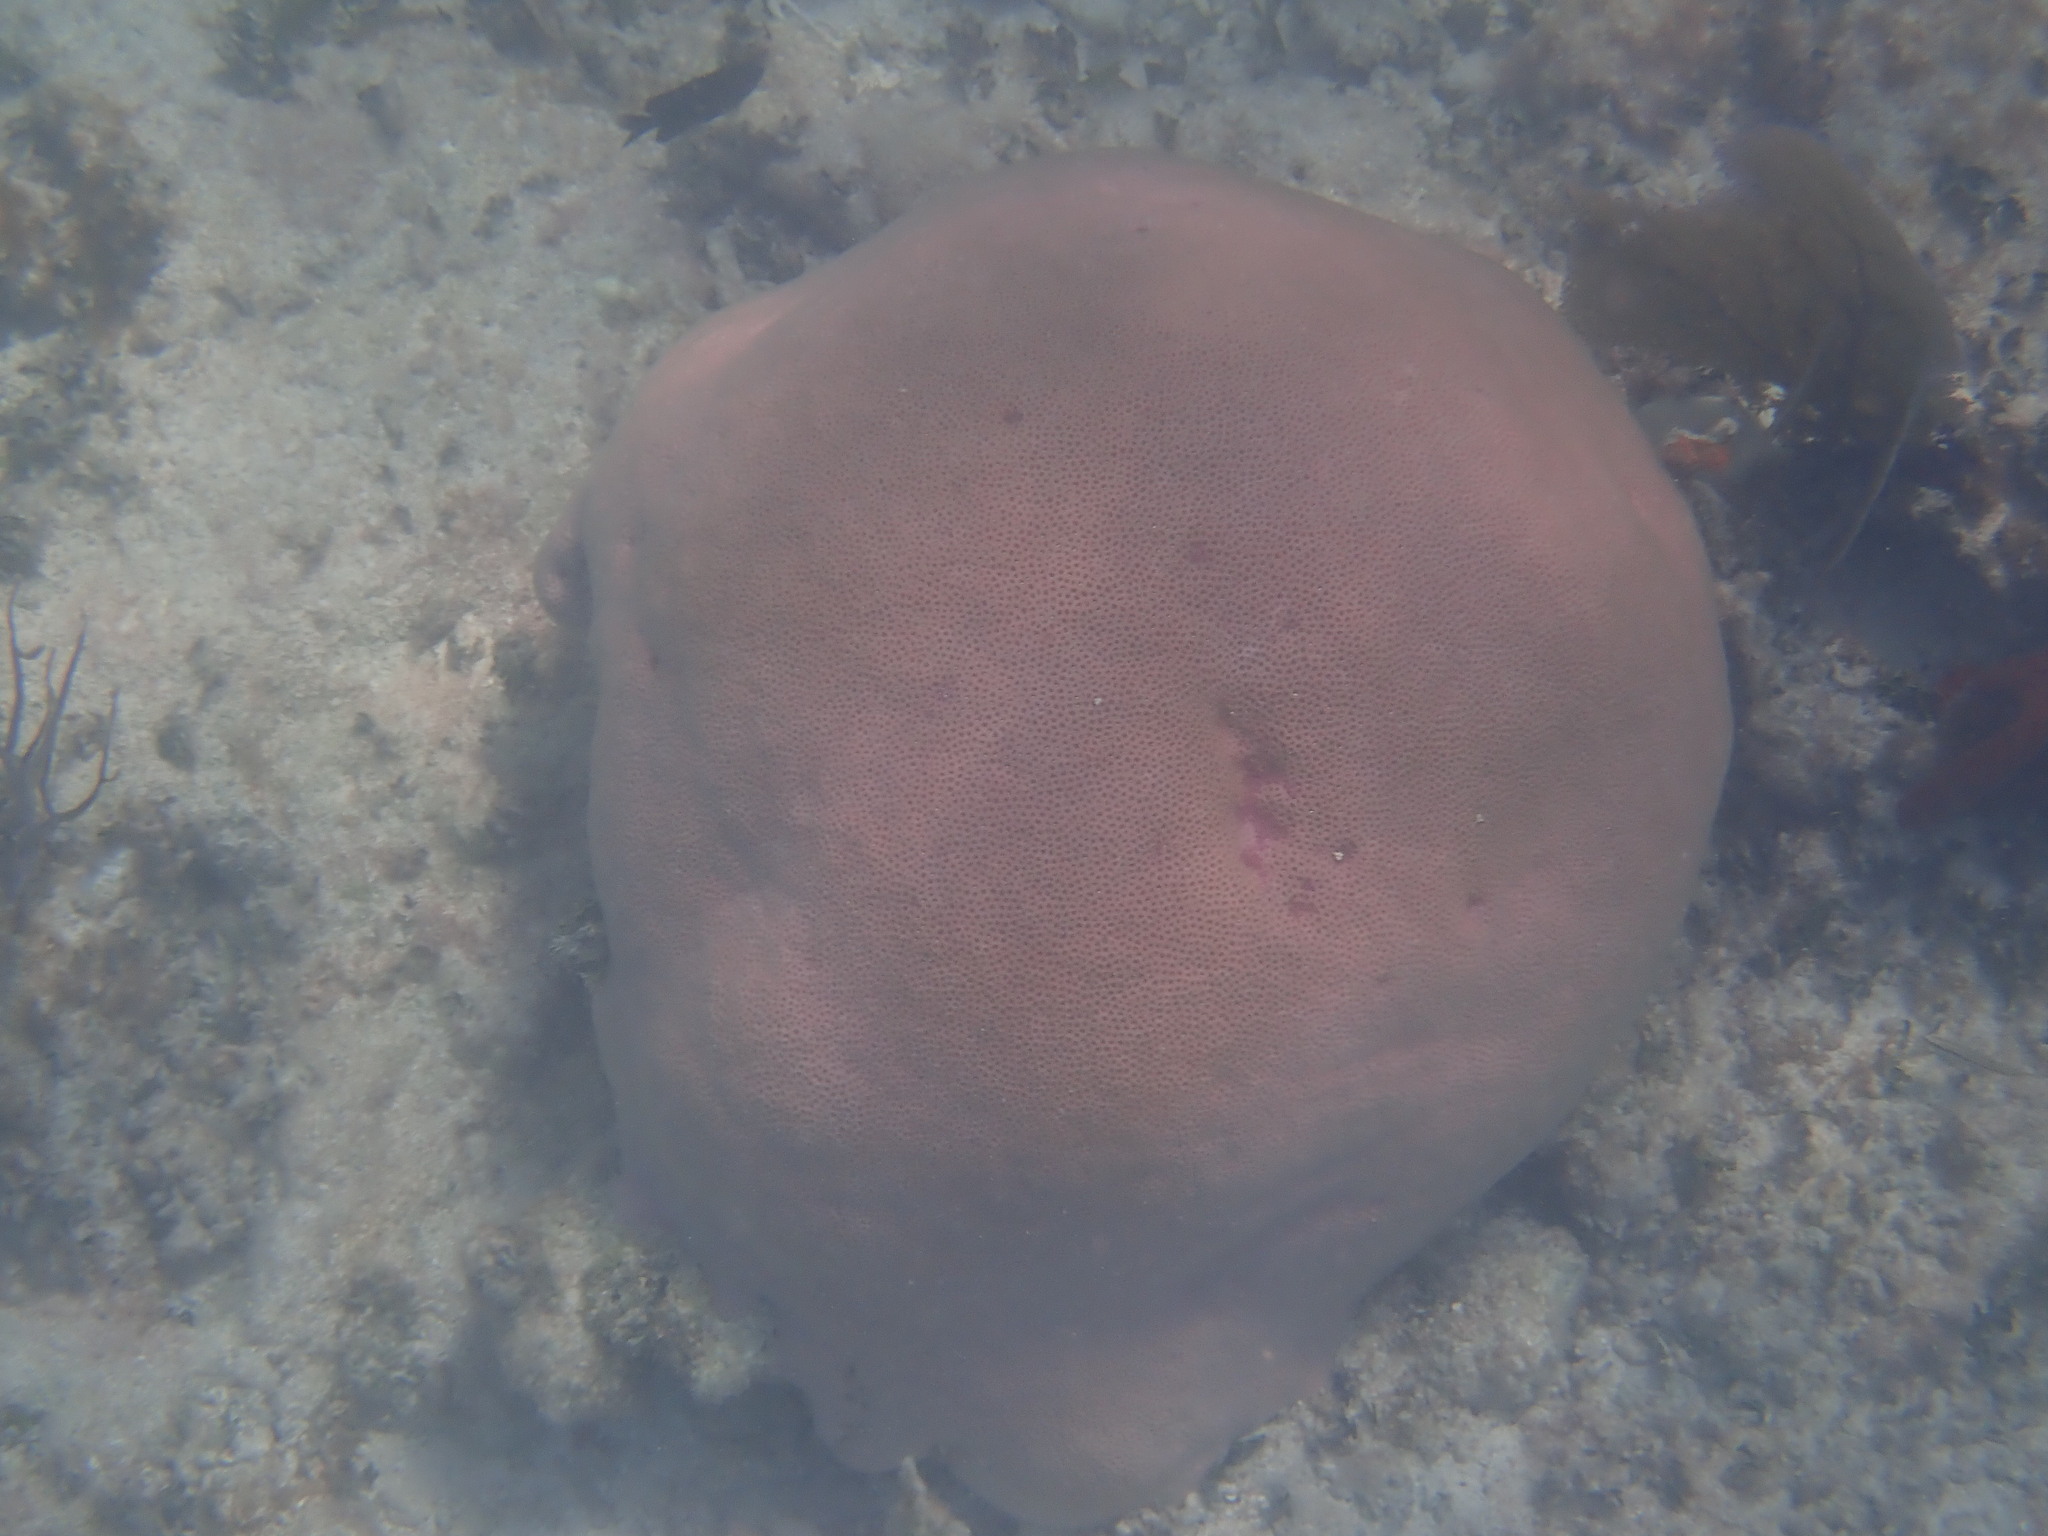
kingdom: Animalia
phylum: Cnidaria
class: Anthozoa
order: Scleractinia
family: Rhizangiidae
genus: Siderastrea
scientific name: Siderastrea siderea
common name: Massive starlet coral
